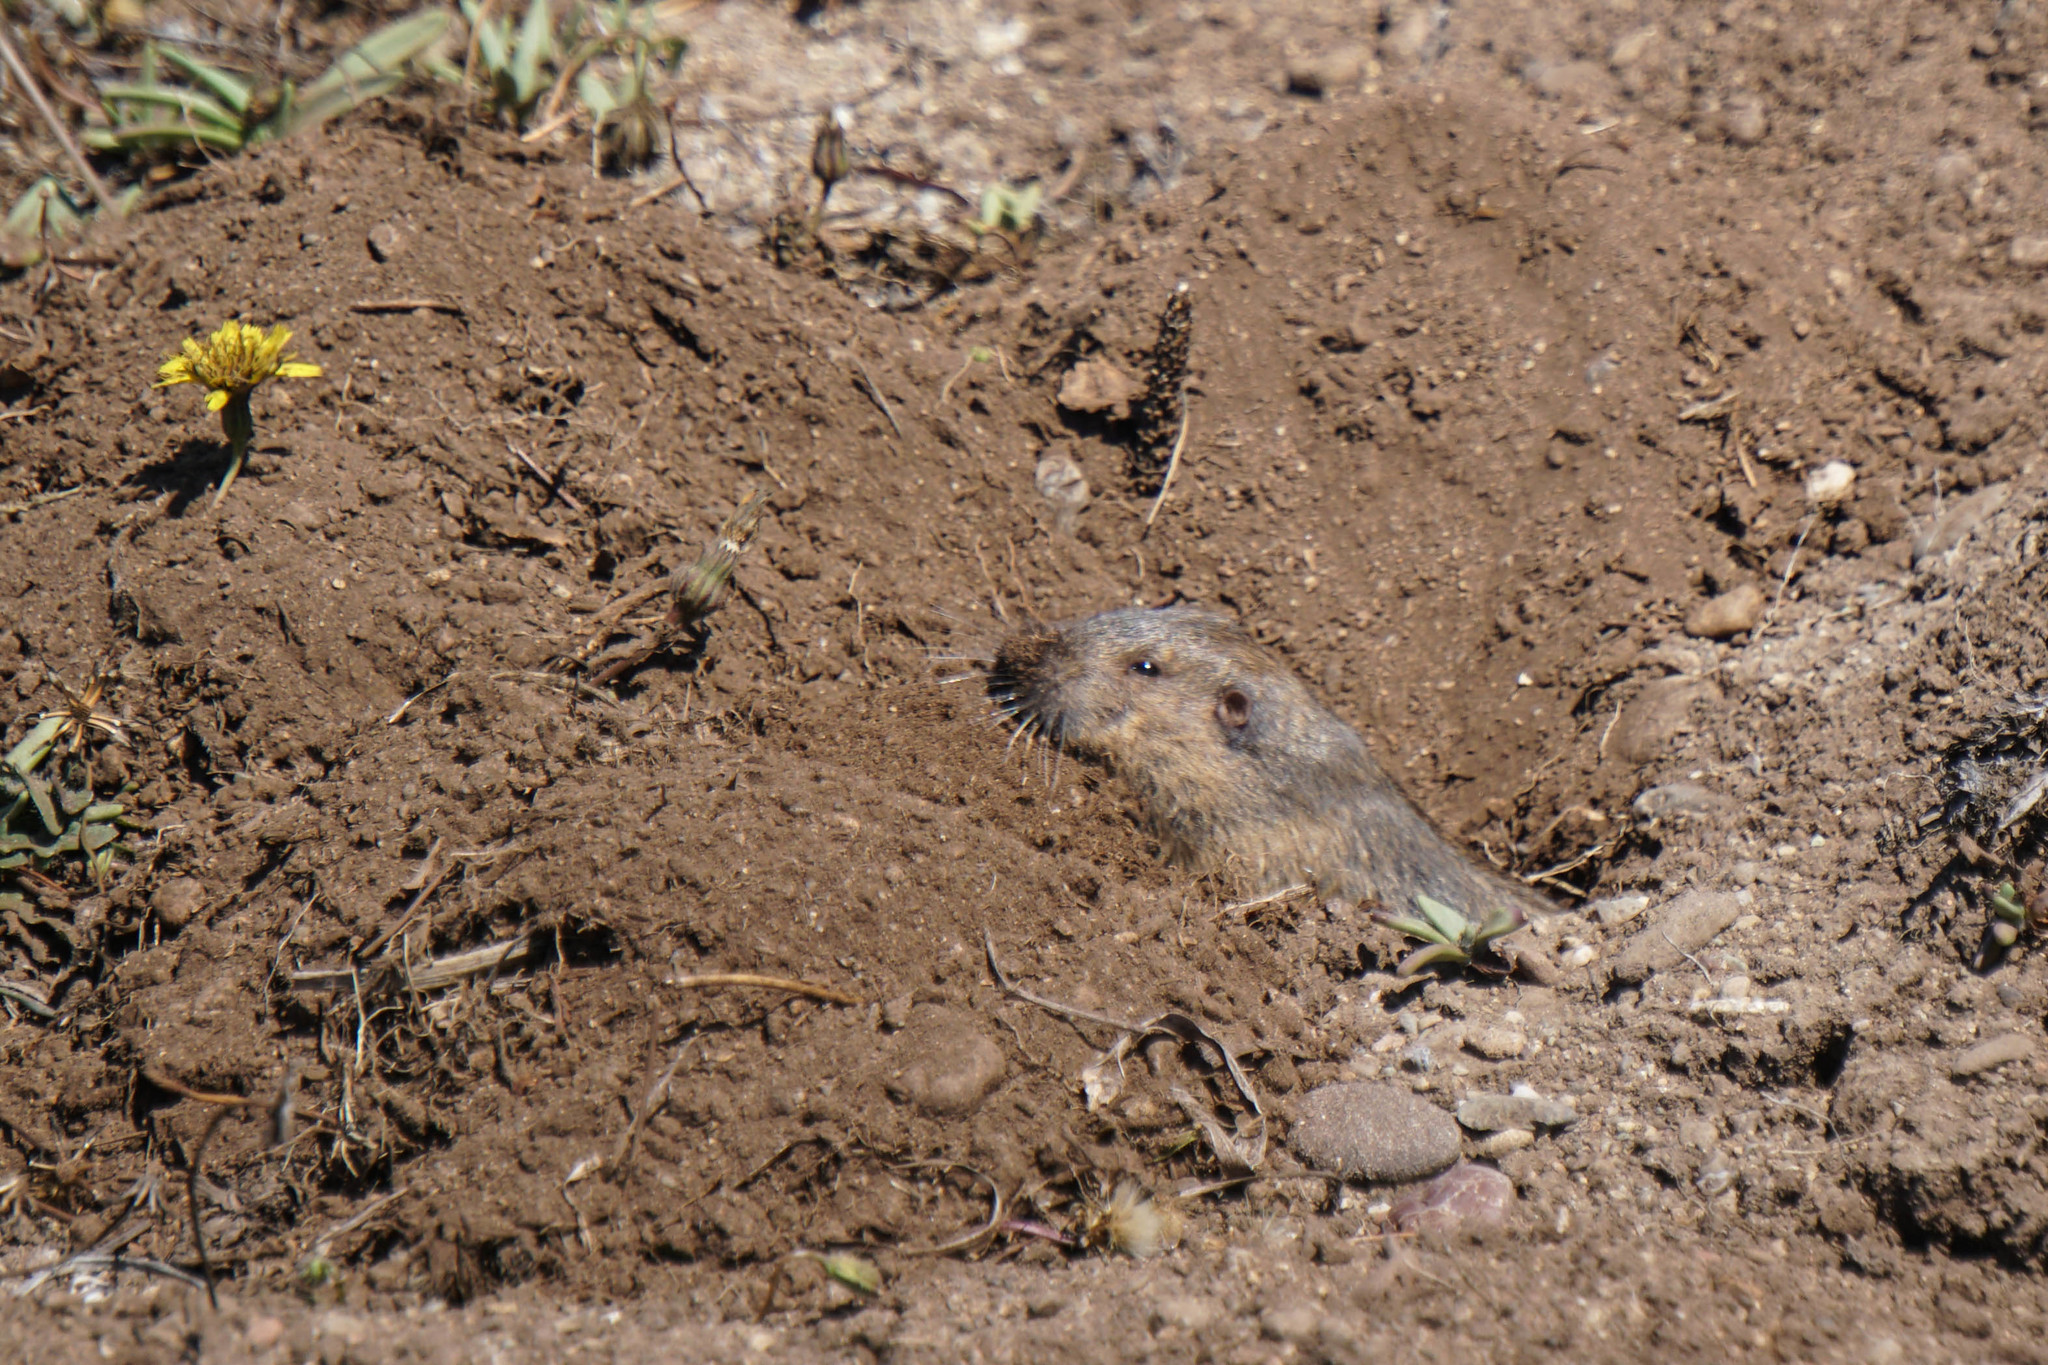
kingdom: Animalia
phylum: Chordata
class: Mammalia
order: Rodentia
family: Geomyidae
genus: Thomomys
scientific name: Thomomys bottae
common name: Botta's pocket gopher
